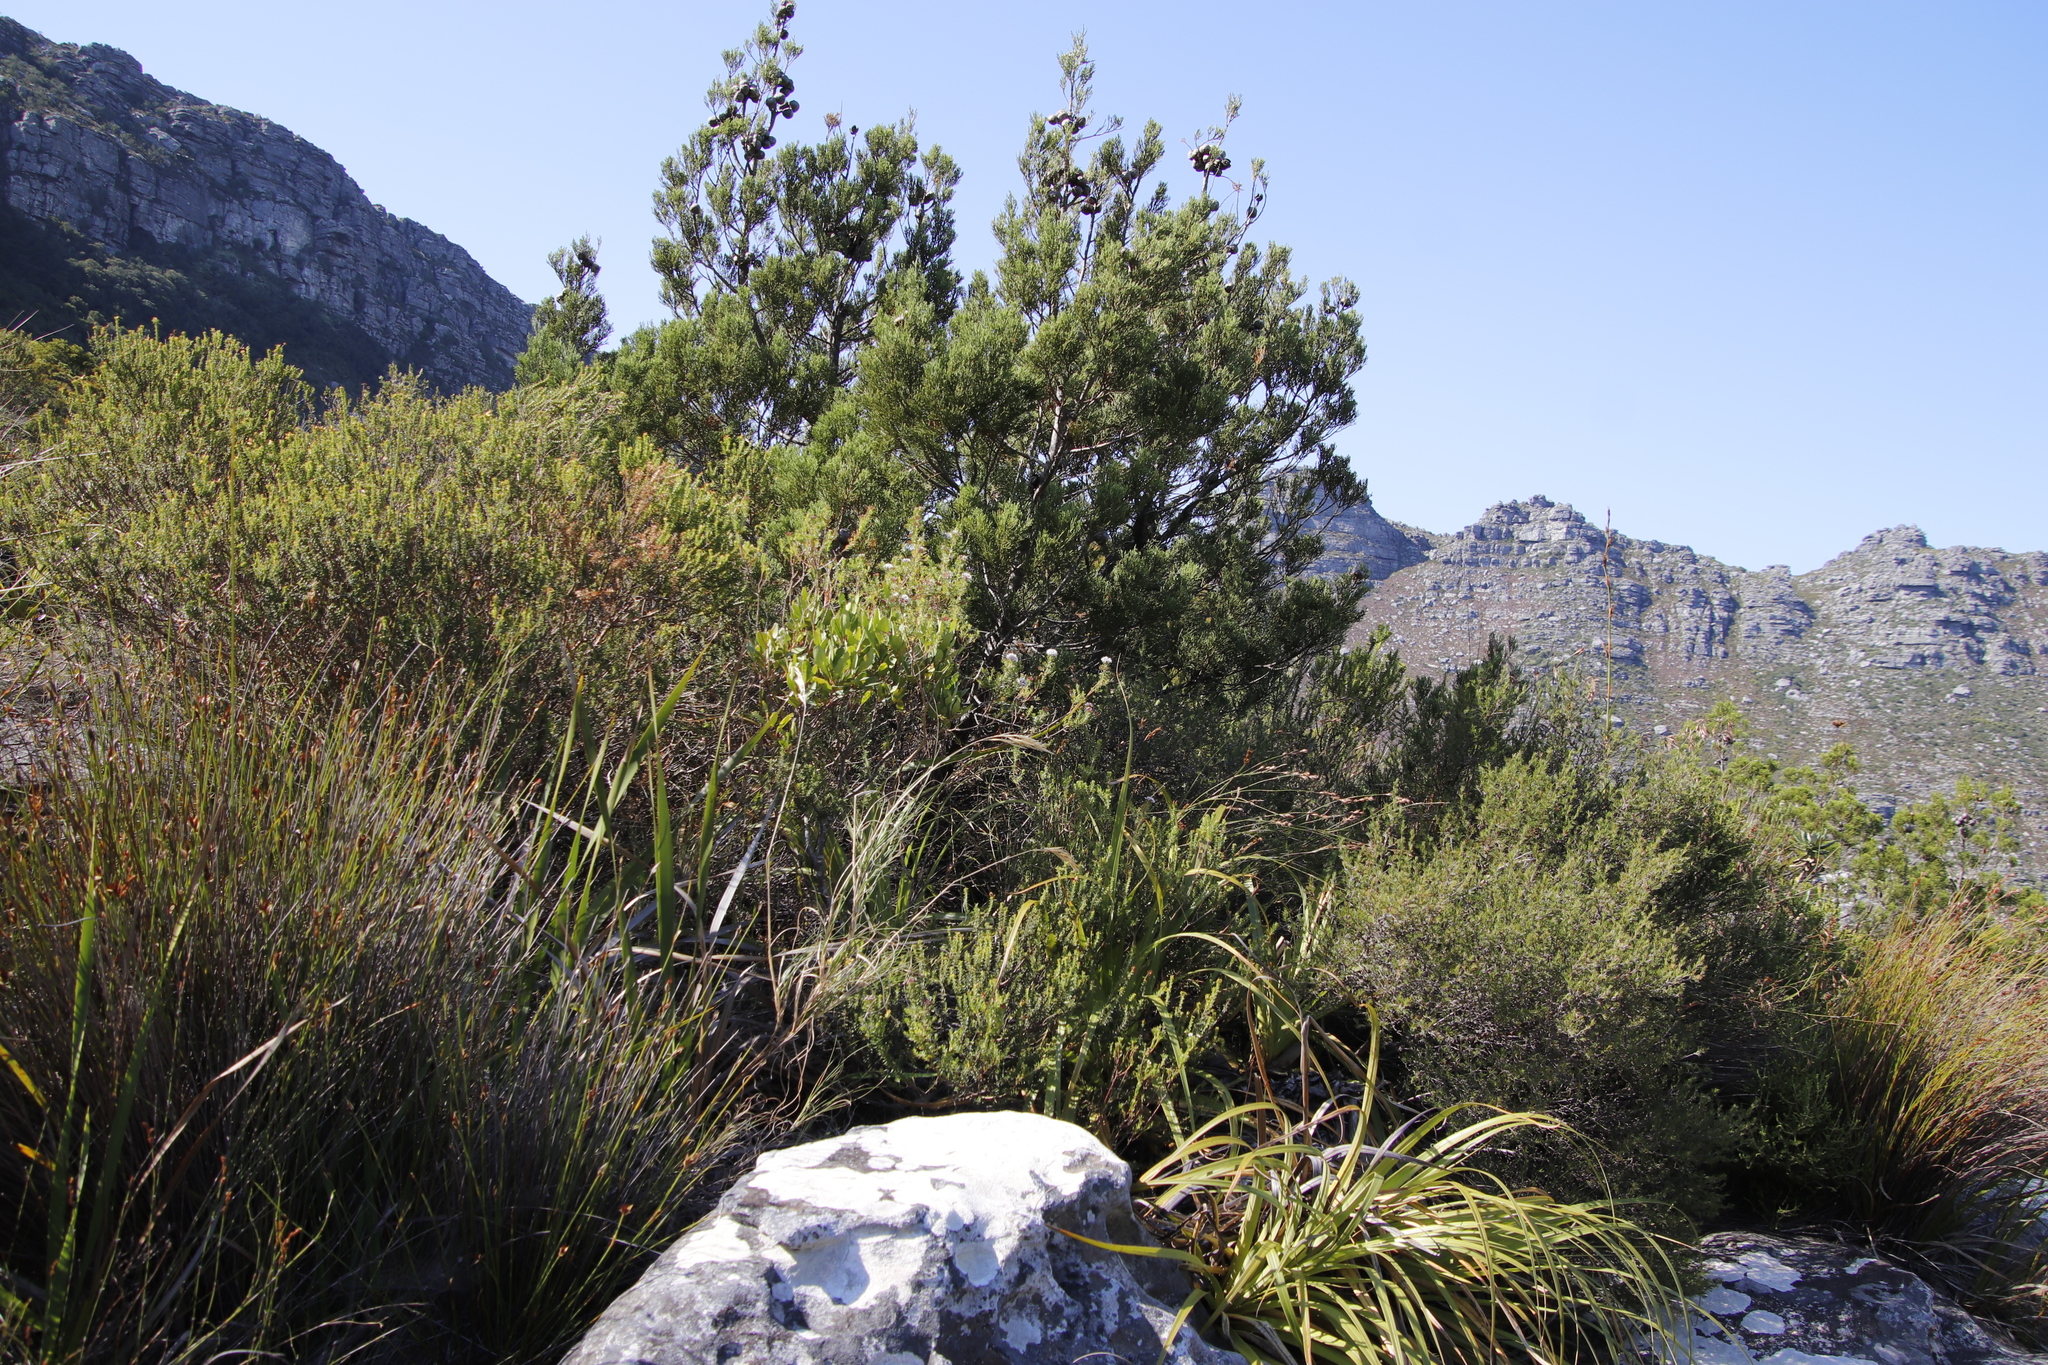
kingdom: Plantae
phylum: Tracheophyta
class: Pinopsida
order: Pinales
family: Cupressaceae
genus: Widdringtonia
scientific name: Widdringtonia nodiflora
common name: Cape cypress
